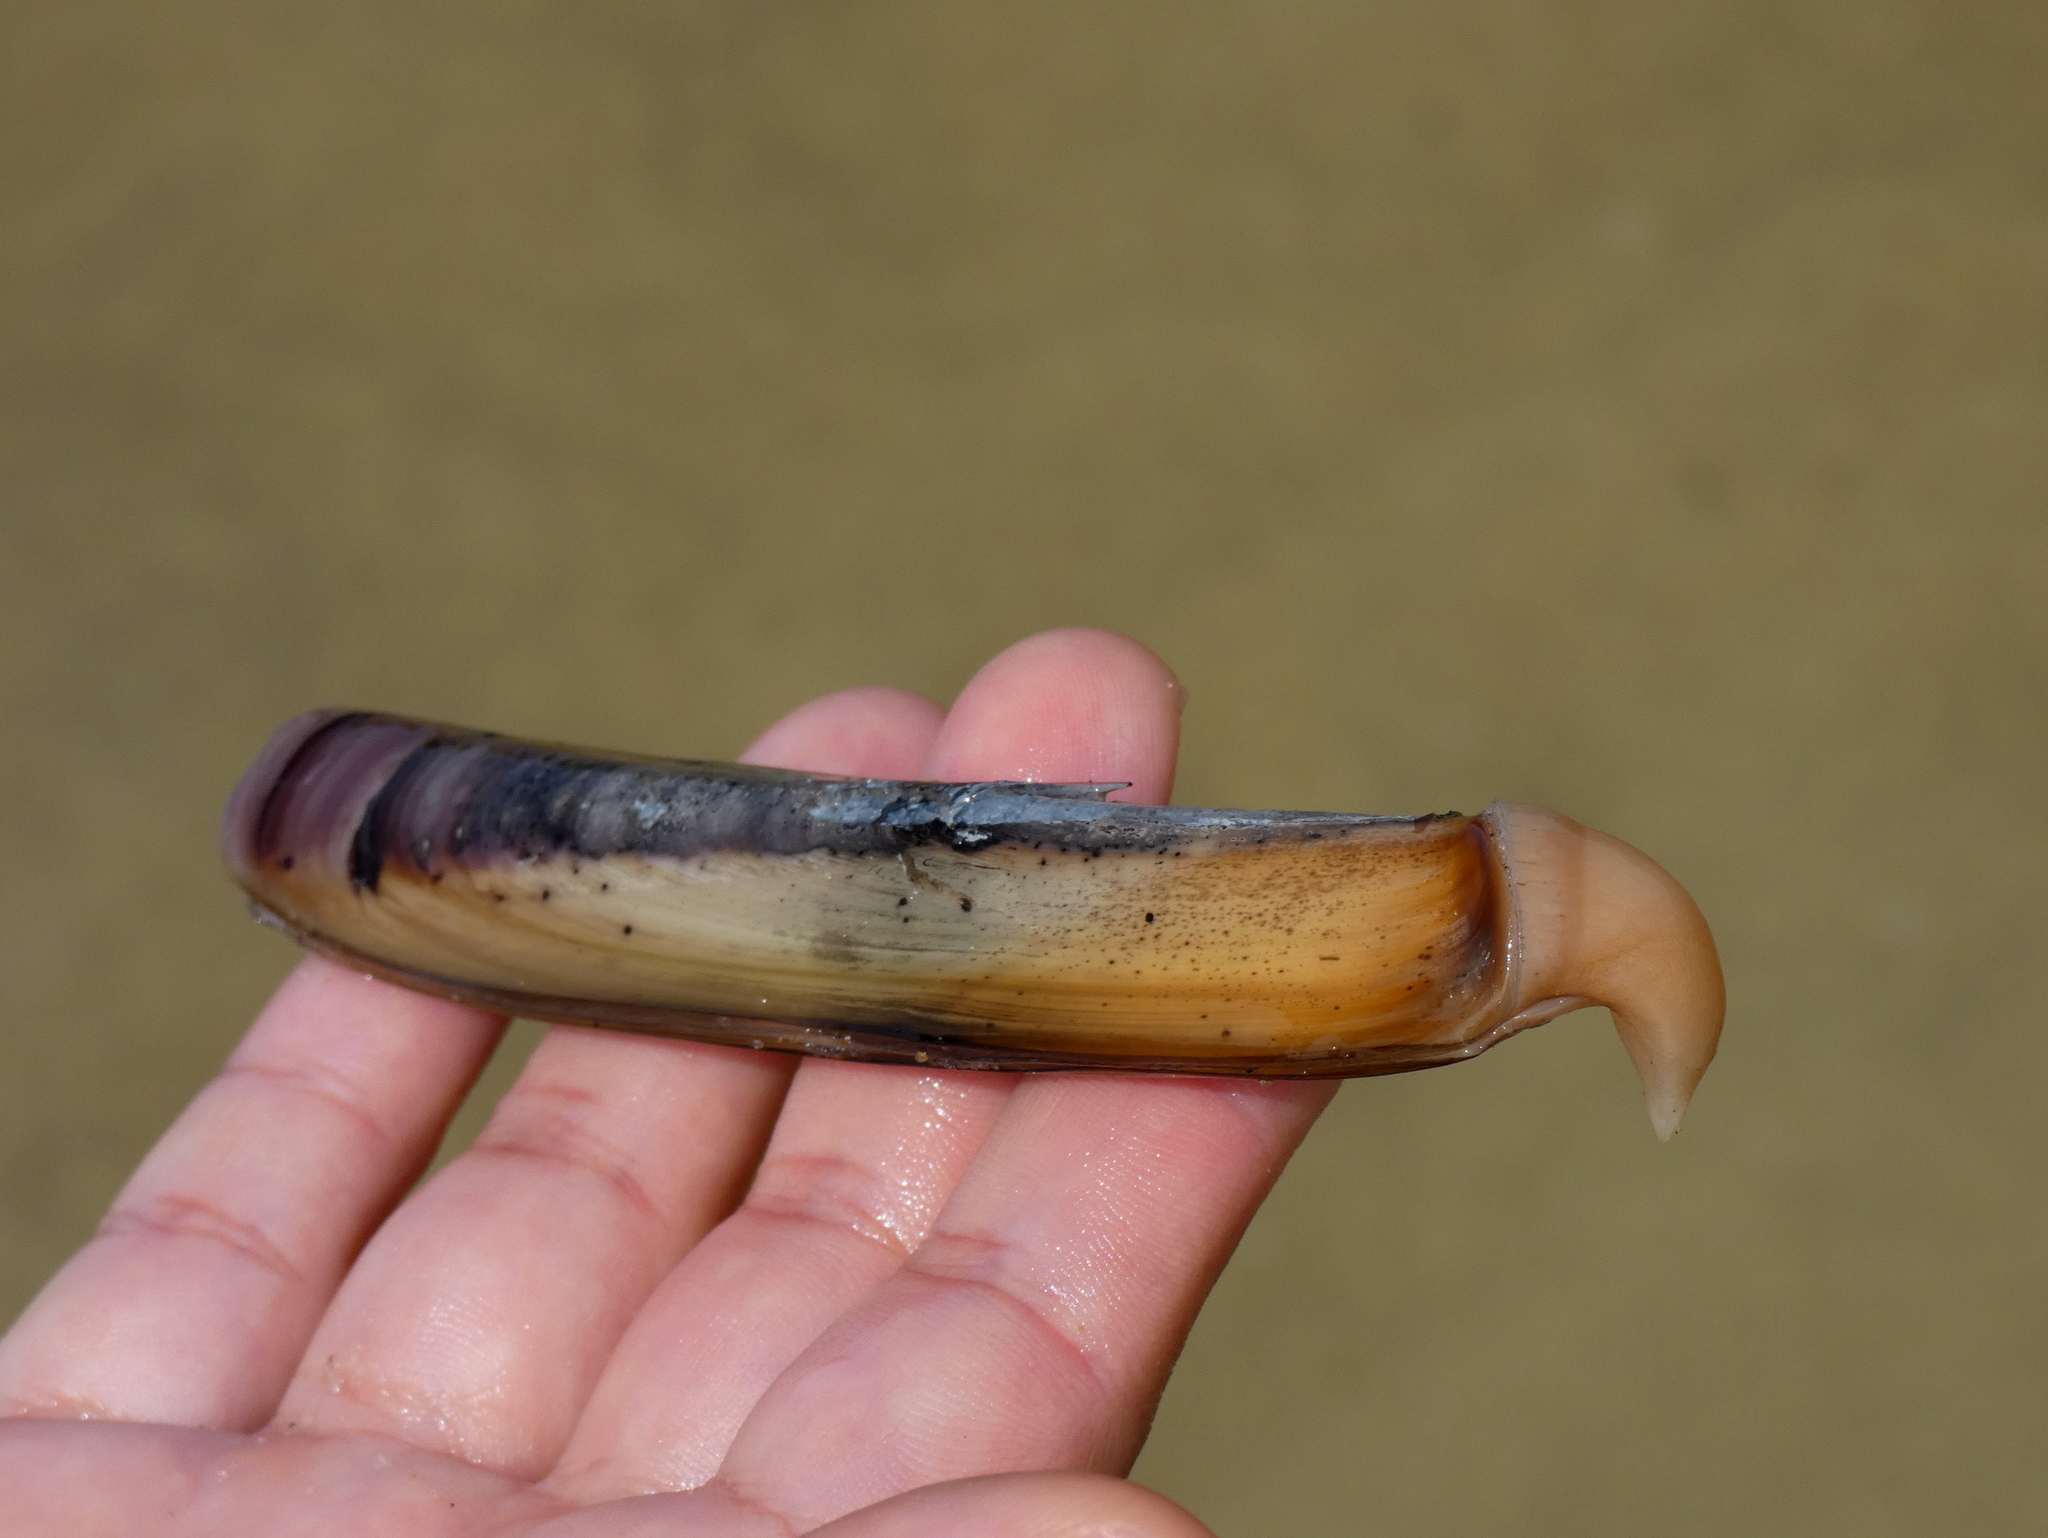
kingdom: Animalia
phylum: Mollusca
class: Bivalvia
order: Adapedonta
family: Pharidae
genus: Ensis
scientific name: Ensis leei
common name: American jack knife clam
